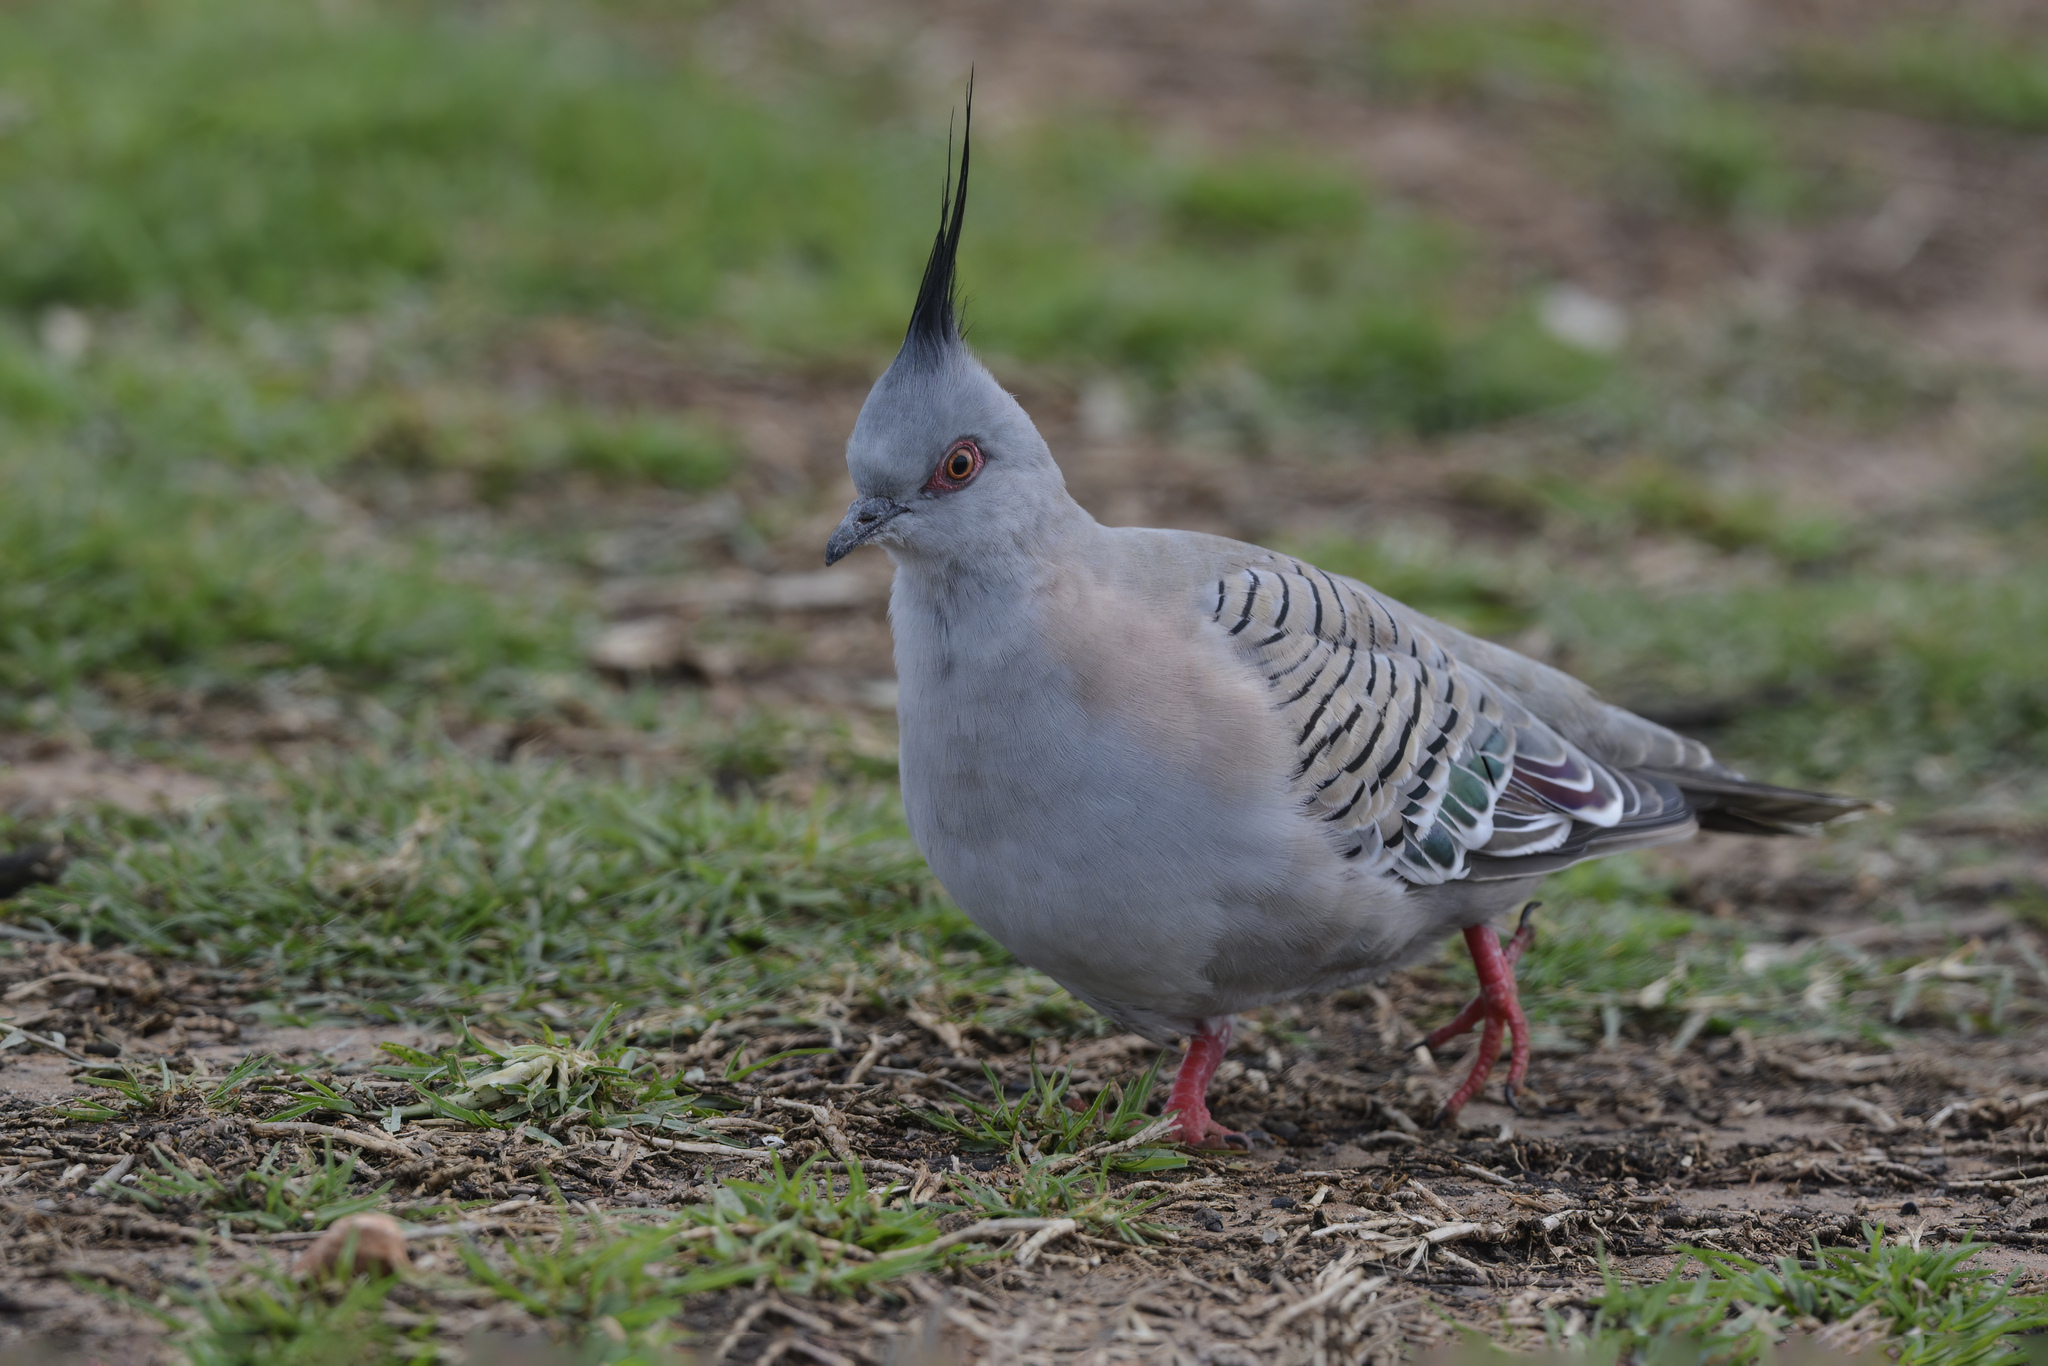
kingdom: Animalia
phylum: Chordata
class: Aves
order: Columbiformes
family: Columbidae
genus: Ocyphaps
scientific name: Ocyphaps lophotes
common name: Crested pigeon
